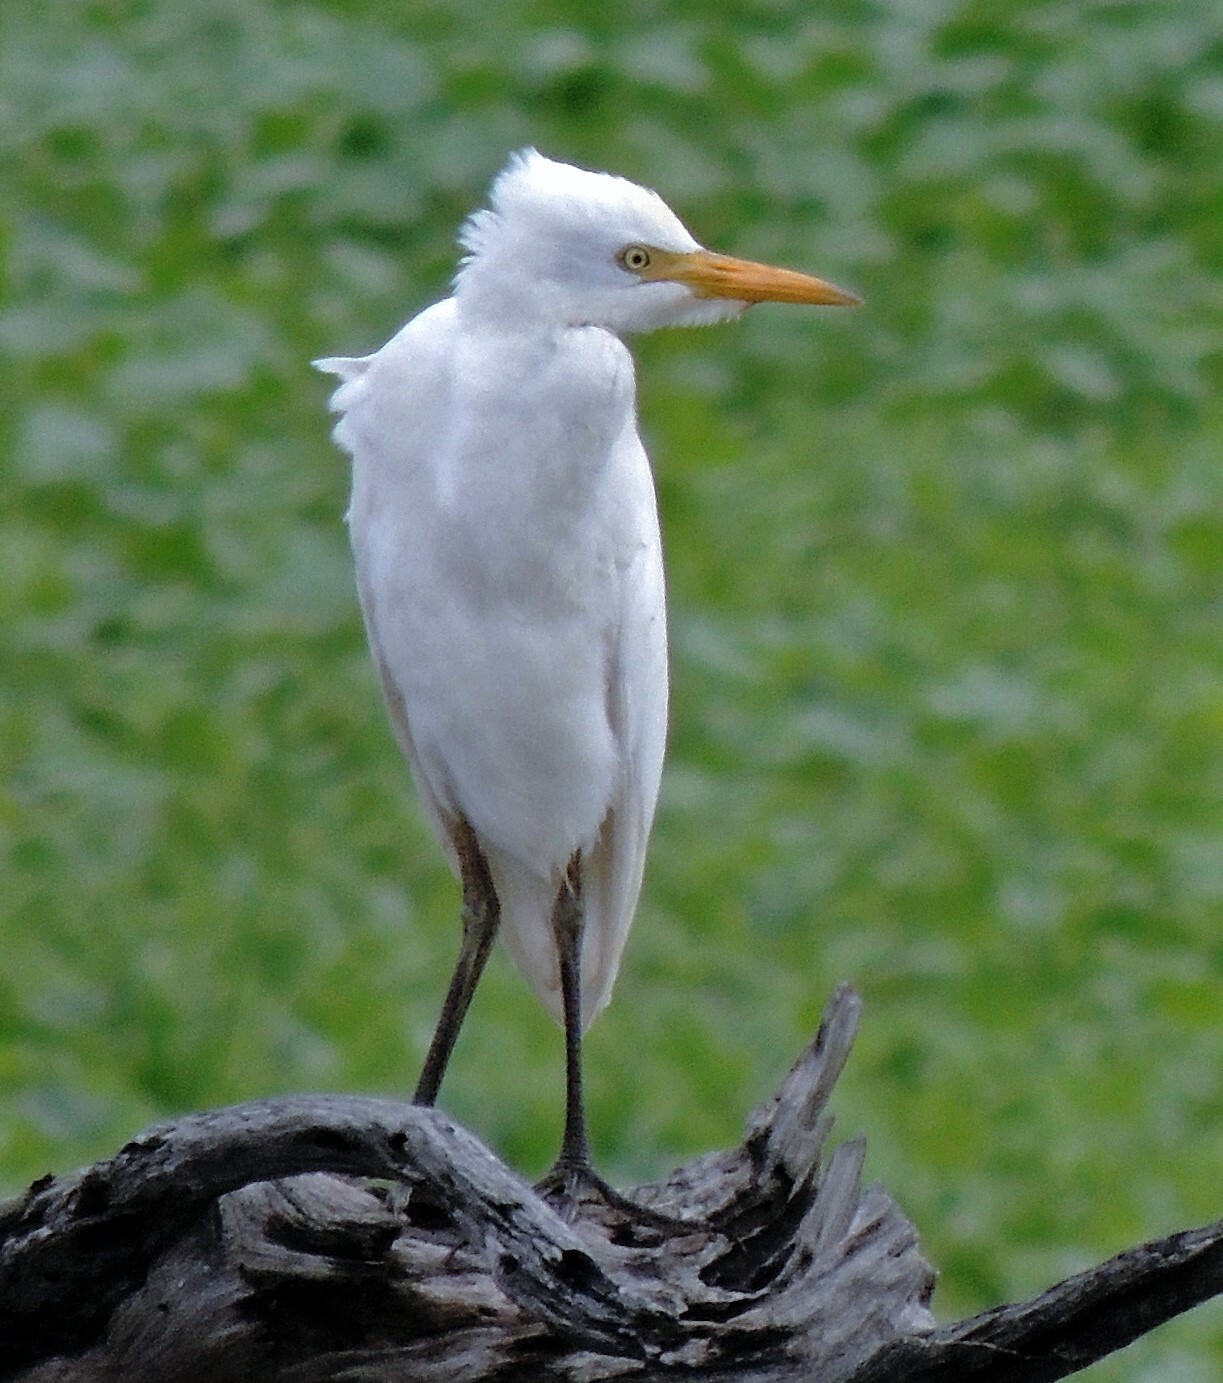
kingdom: Animalia
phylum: Chordata
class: Aves
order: Pelecaniformes
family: Ardeidae
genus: Bubulcus
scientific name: Bubulcus ibis
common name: Cattle egret
